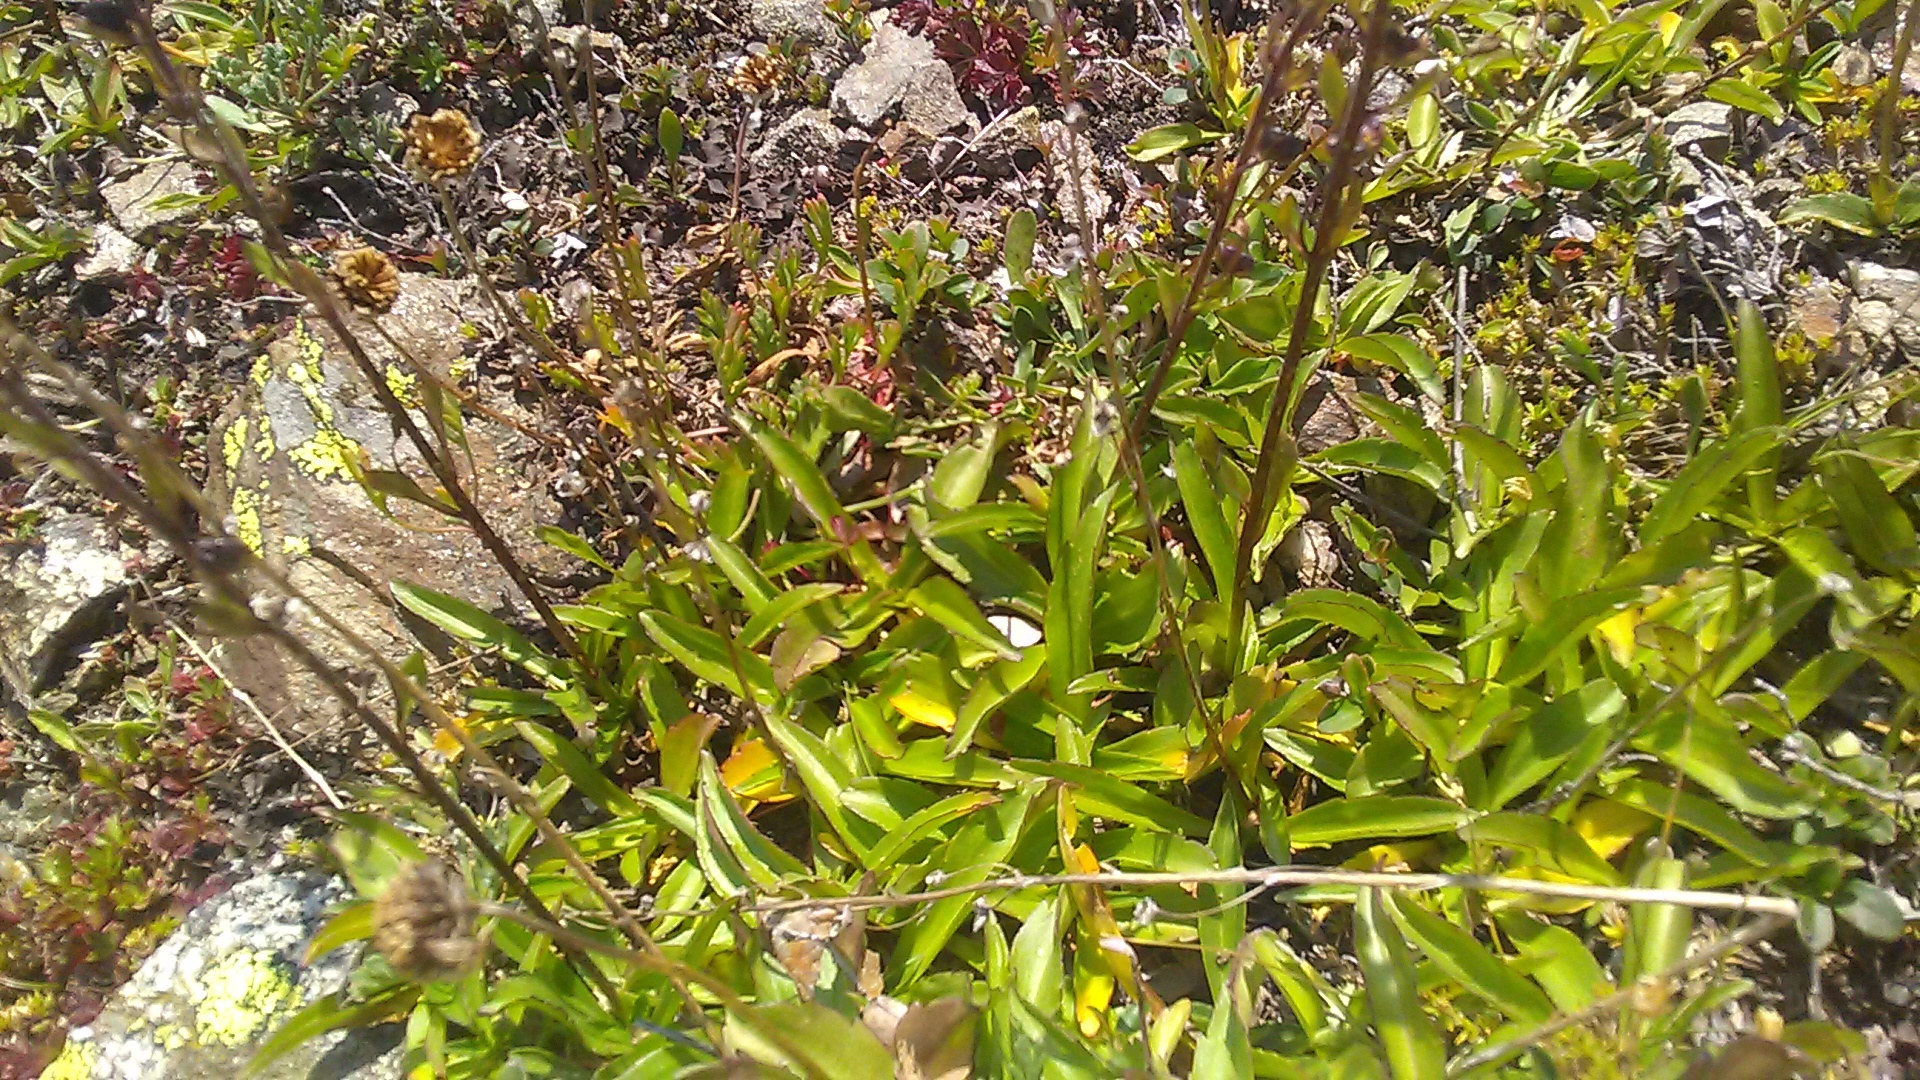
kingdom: Plantae
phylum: Tracheophyta
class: Magnoliopsida
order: Lamiales
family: Plantaginaceae
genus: Veronica
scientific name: Veronica gentianoides
